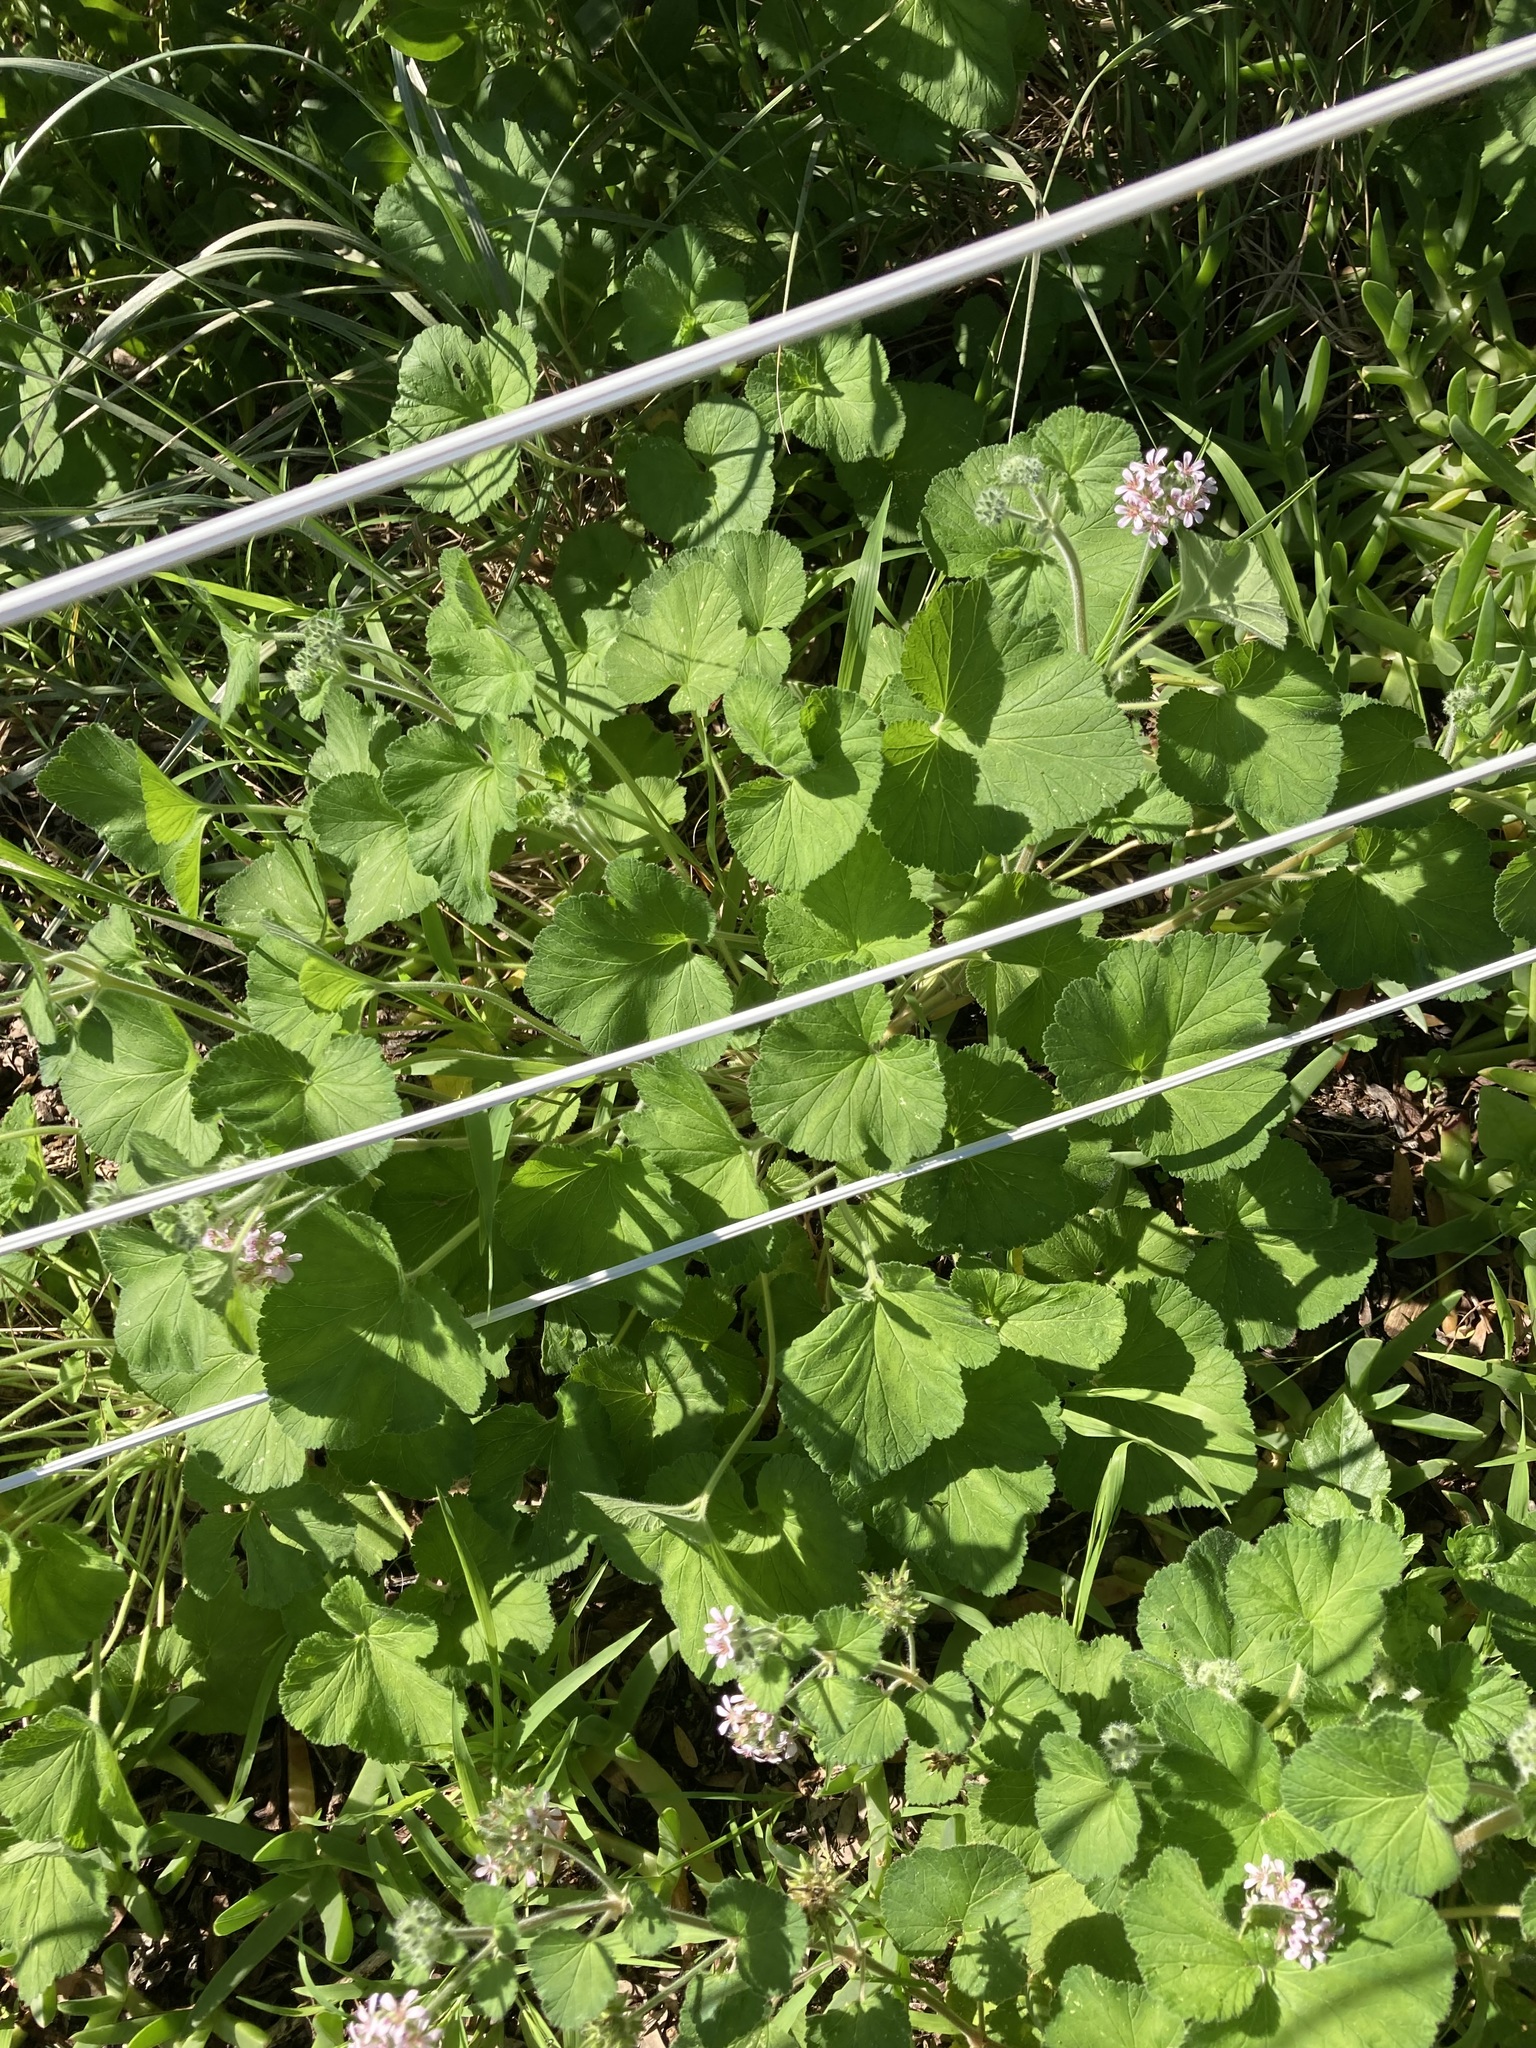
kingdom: Plantae
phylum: Tracheophyta
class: Magnoliopsida
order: Geraniales
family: Geraniaceae
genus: Pelargonium
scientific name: Pelargonium australe
